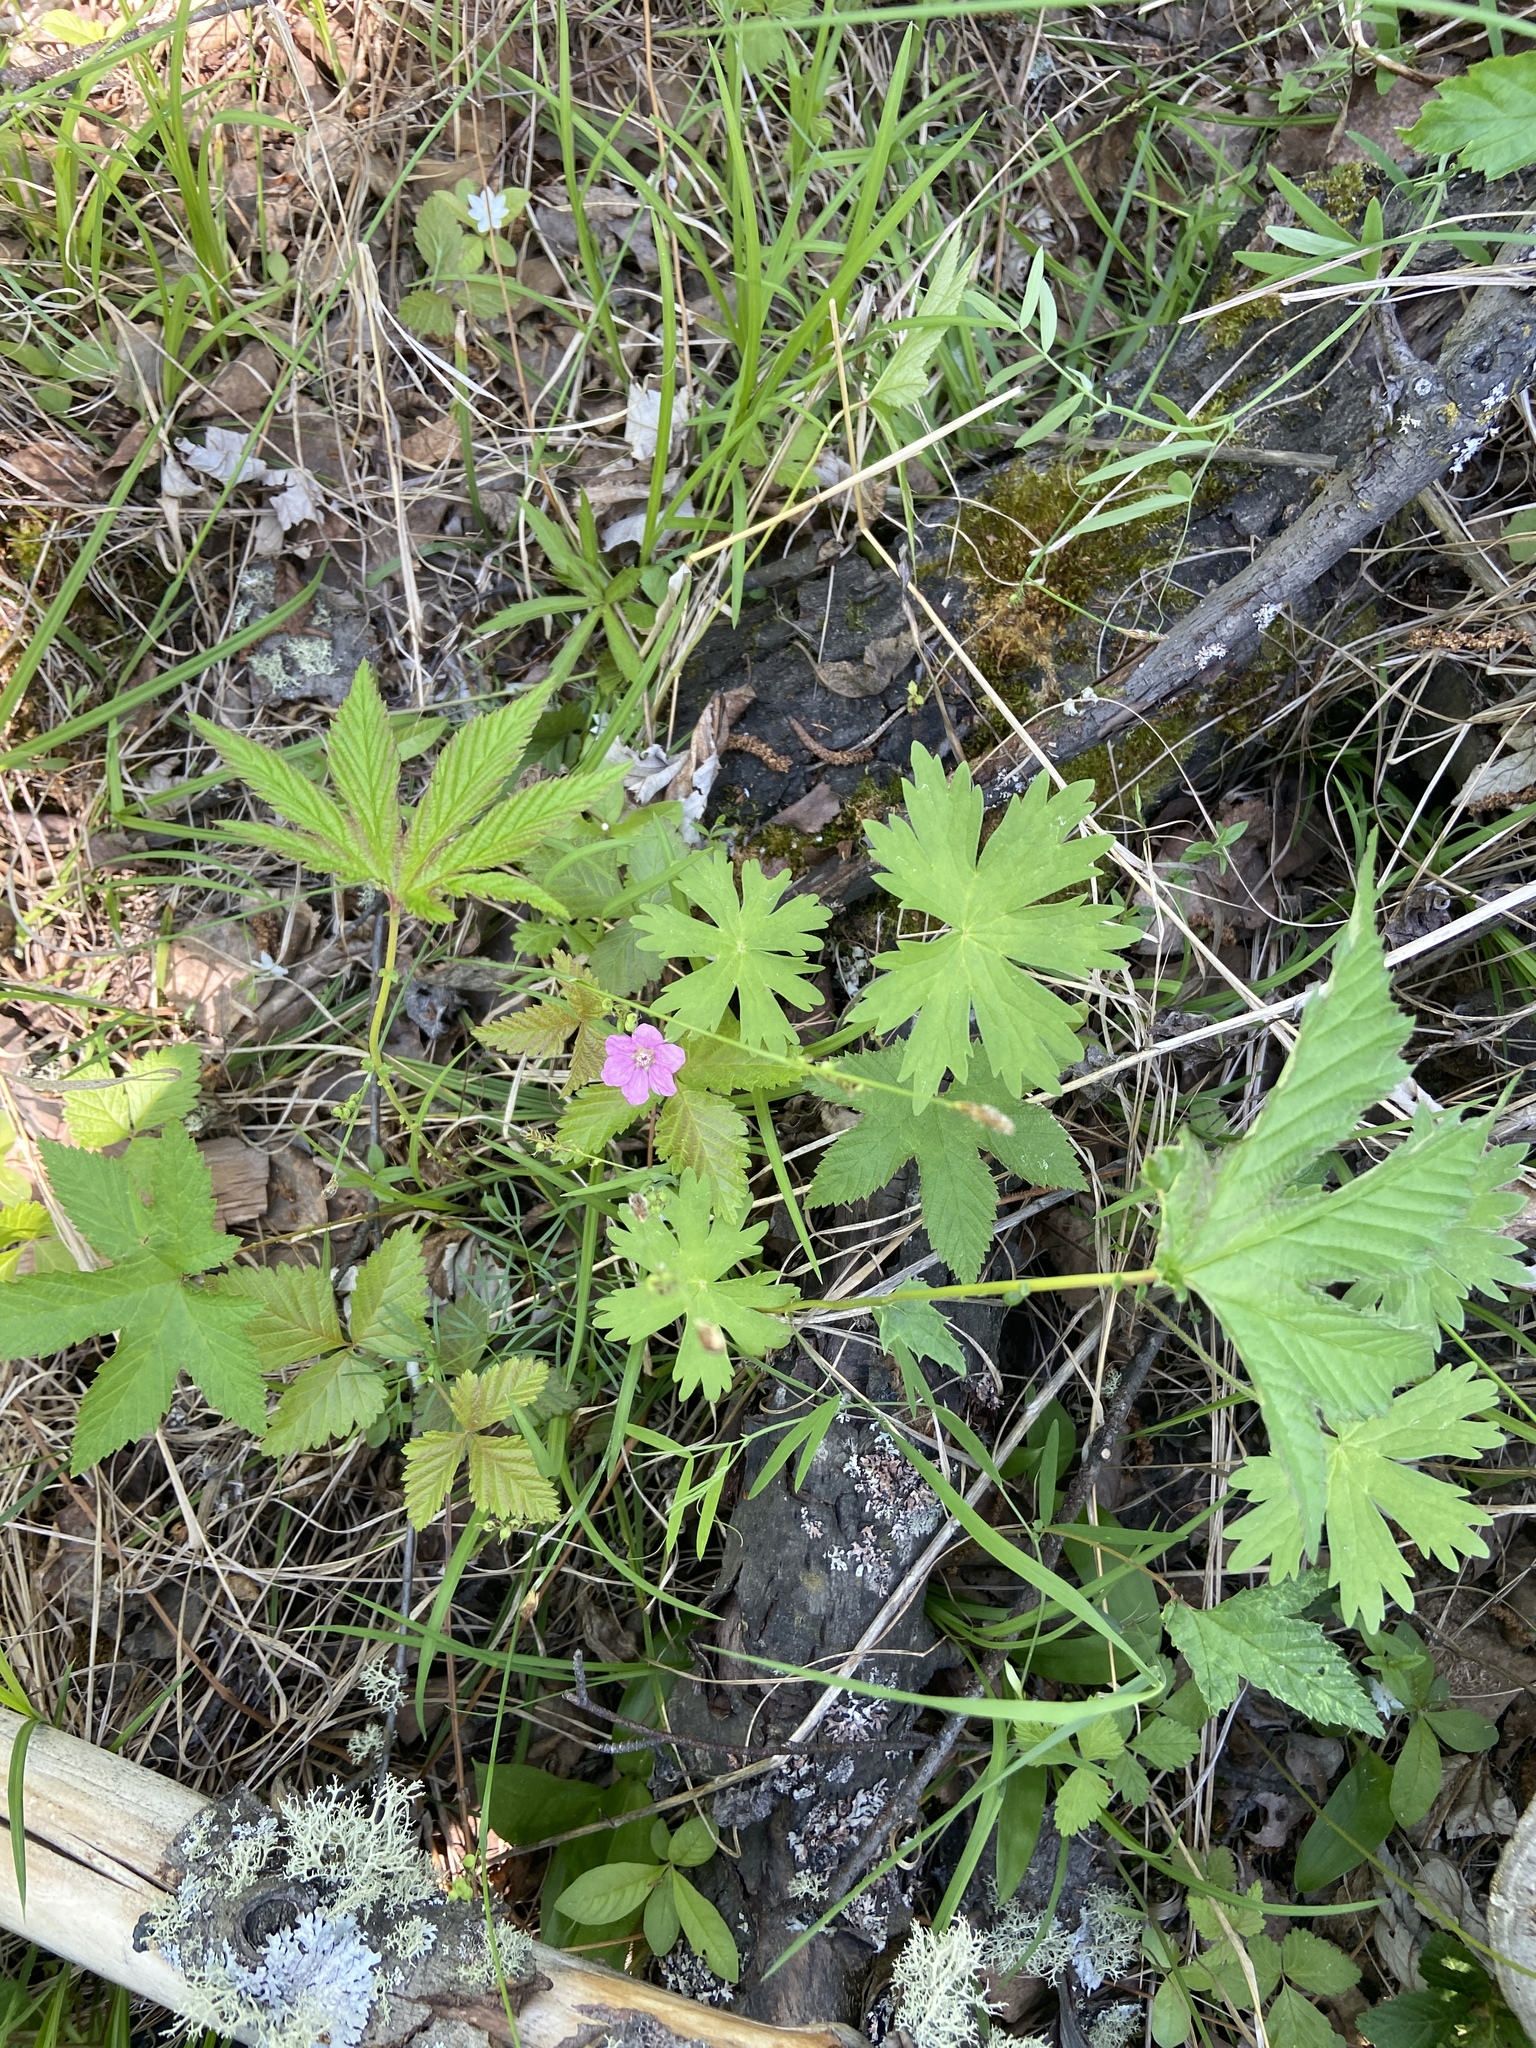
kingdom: Plantae
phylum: Tracheophyta
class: Magnoliopsida
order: Rosales
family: Rosaceae
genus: Rubus
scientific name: Rubus arcticus
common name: Arctic bramble
